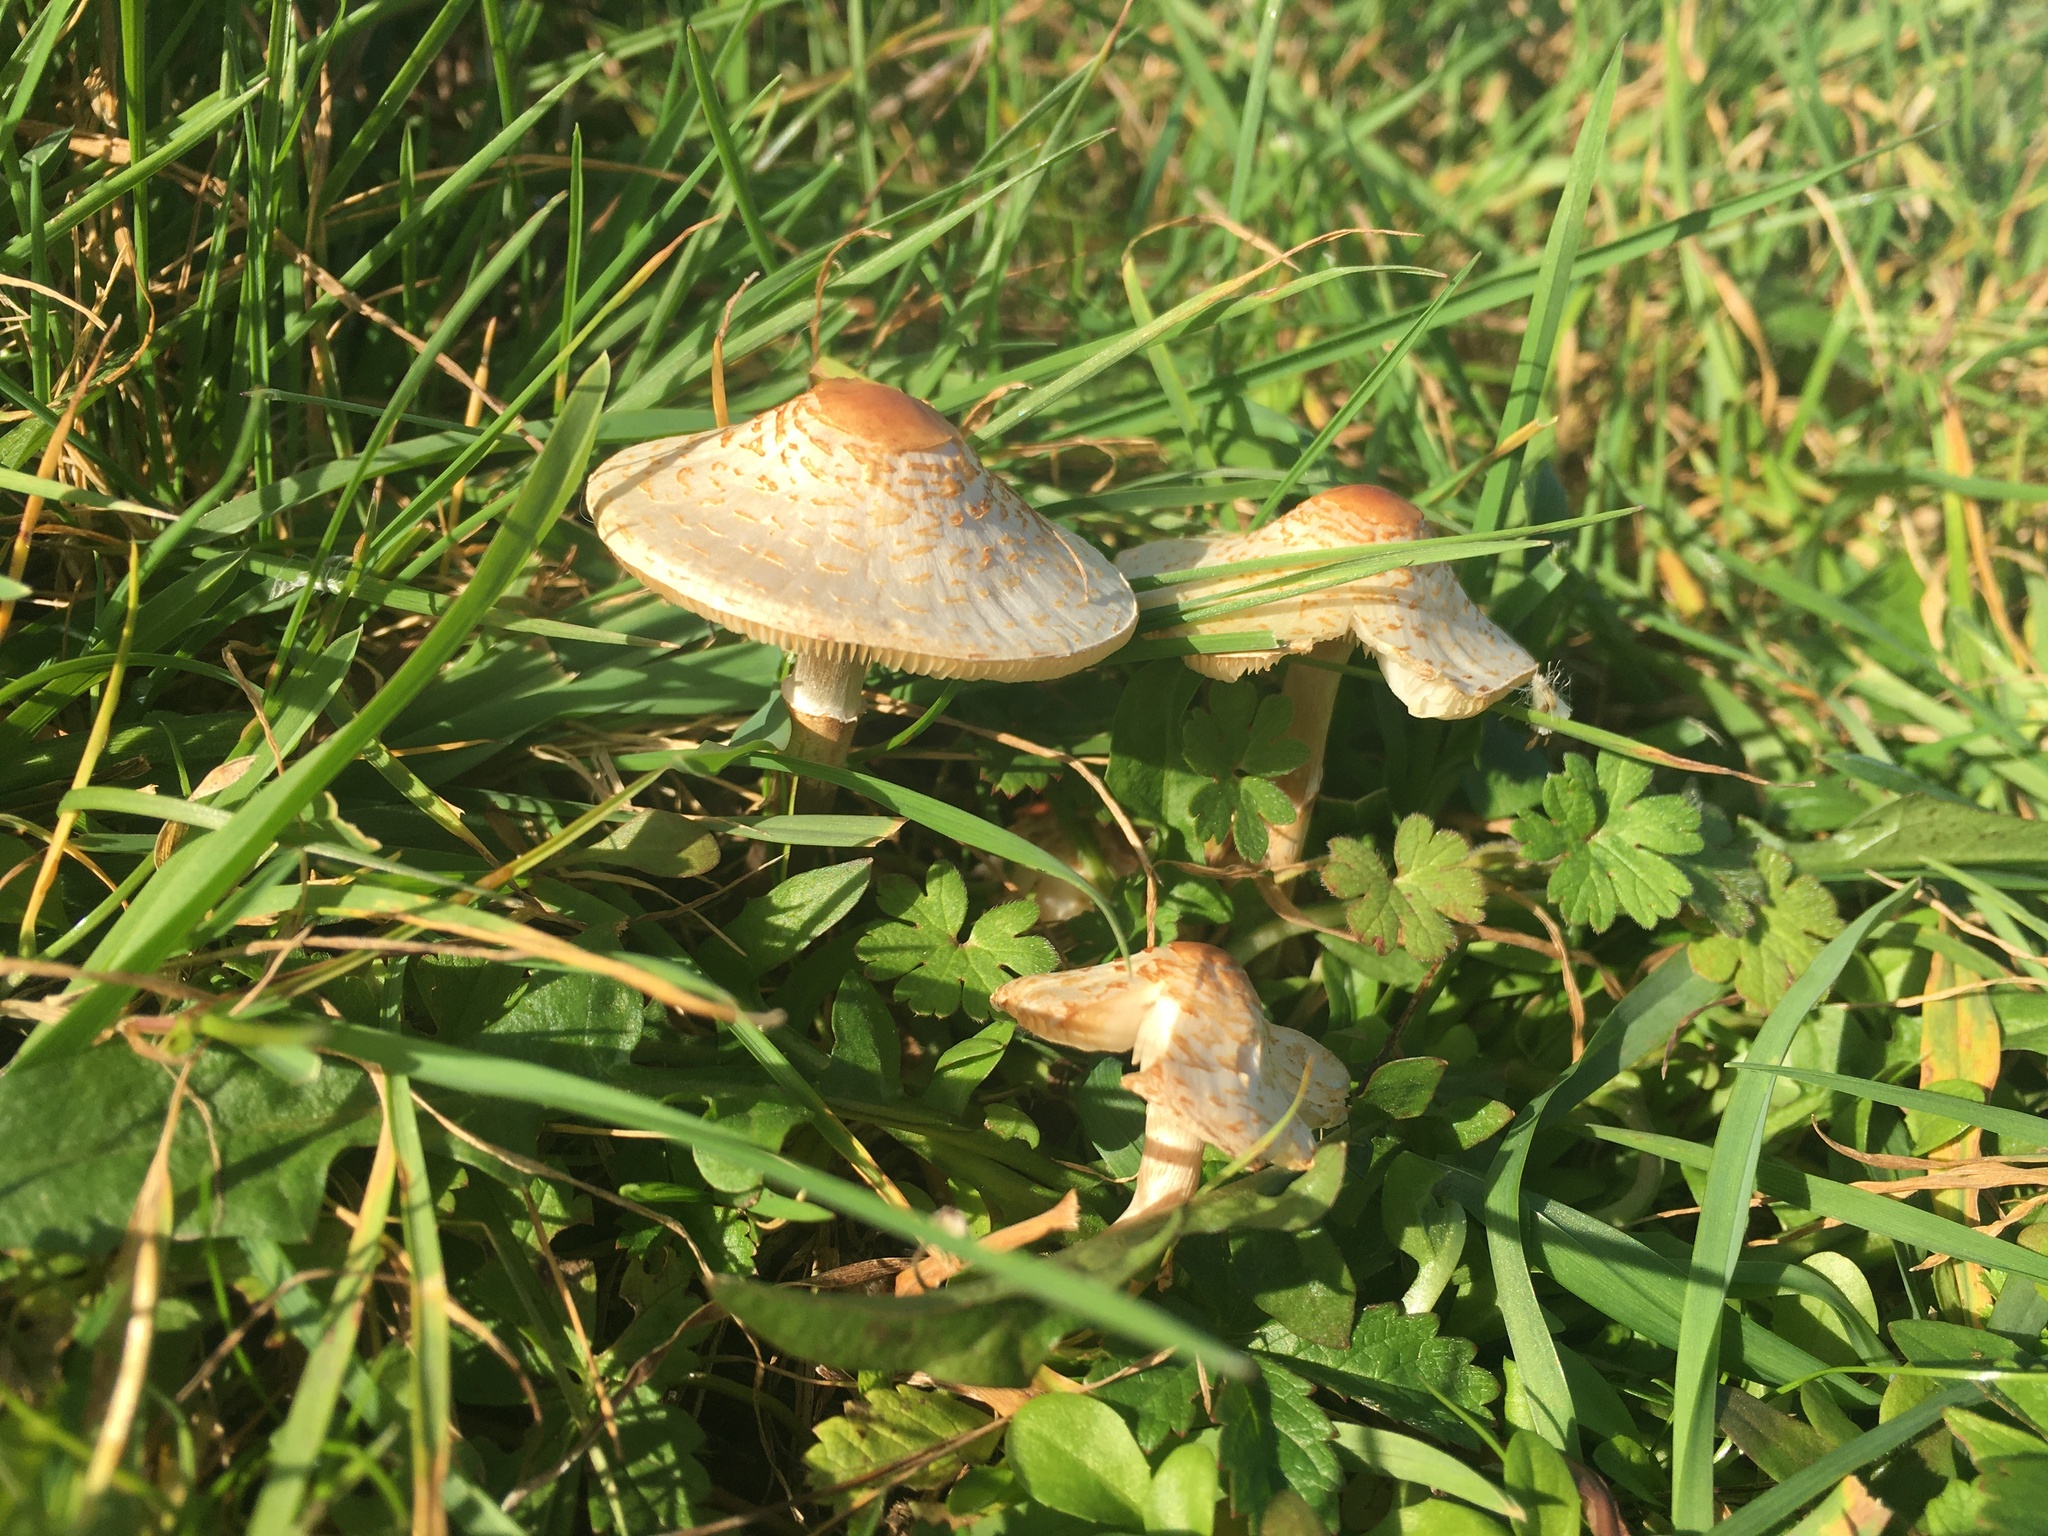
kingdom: Fungi
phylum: Basidiomycota
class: Agaricomycetes
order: Agaricales
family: Agaricaceae
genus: Lepiota
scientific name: Lepiota cristata
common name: Stinking dapperling
